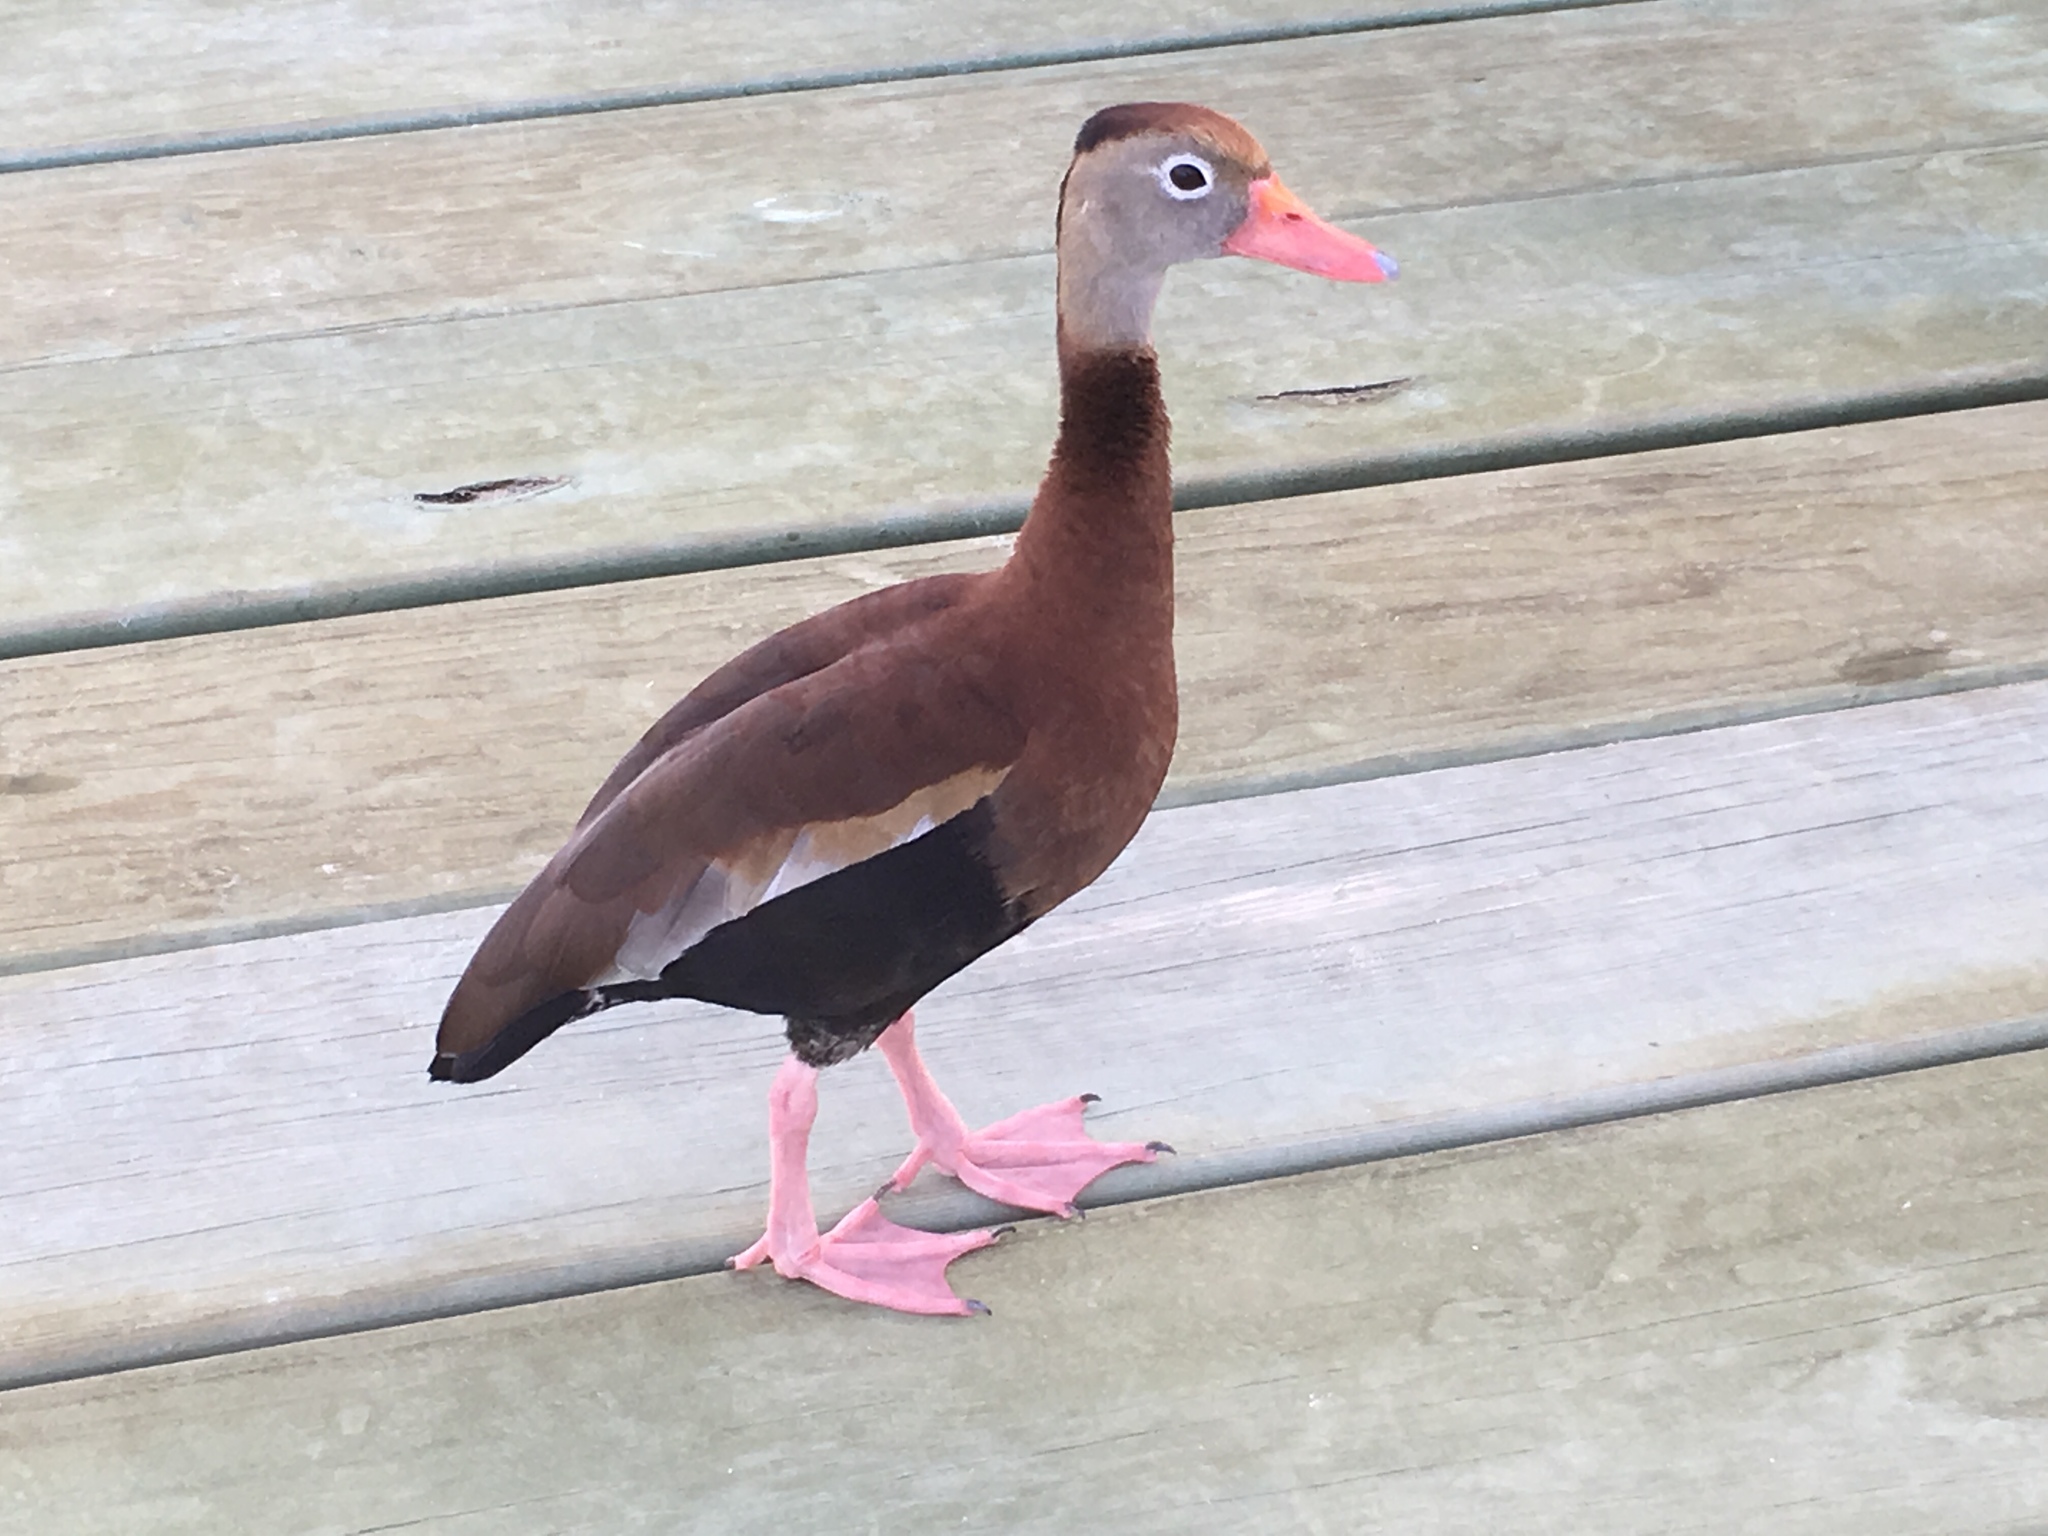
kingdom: Animalia
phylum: Chordata
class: Aves
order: Anseriformes
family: Anatidae
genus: Dendrocygna
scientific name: Dendrocygna autumnalis
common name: Black-bellied whistling duck
